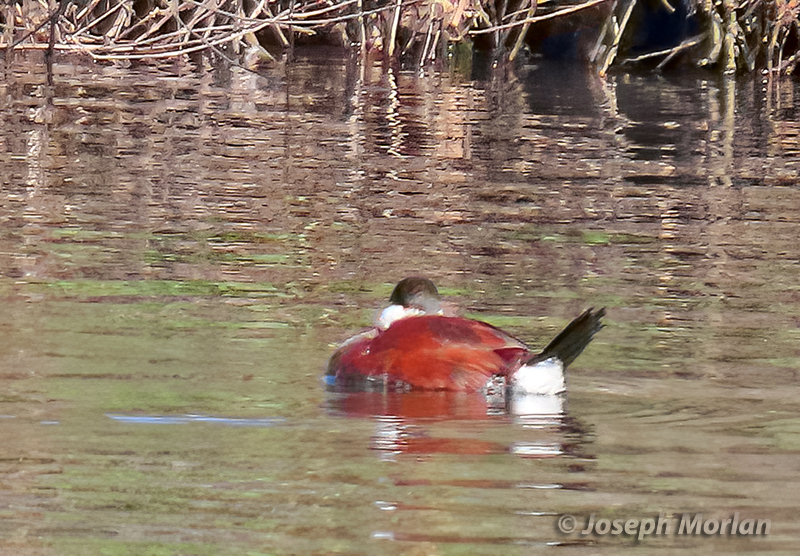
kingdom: Animalia
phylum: Chordata
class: Aves
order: Anseriformes
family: Anatidae
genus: Oxyura
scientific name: Oxyura jamaicensis
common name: Ruddy duck
